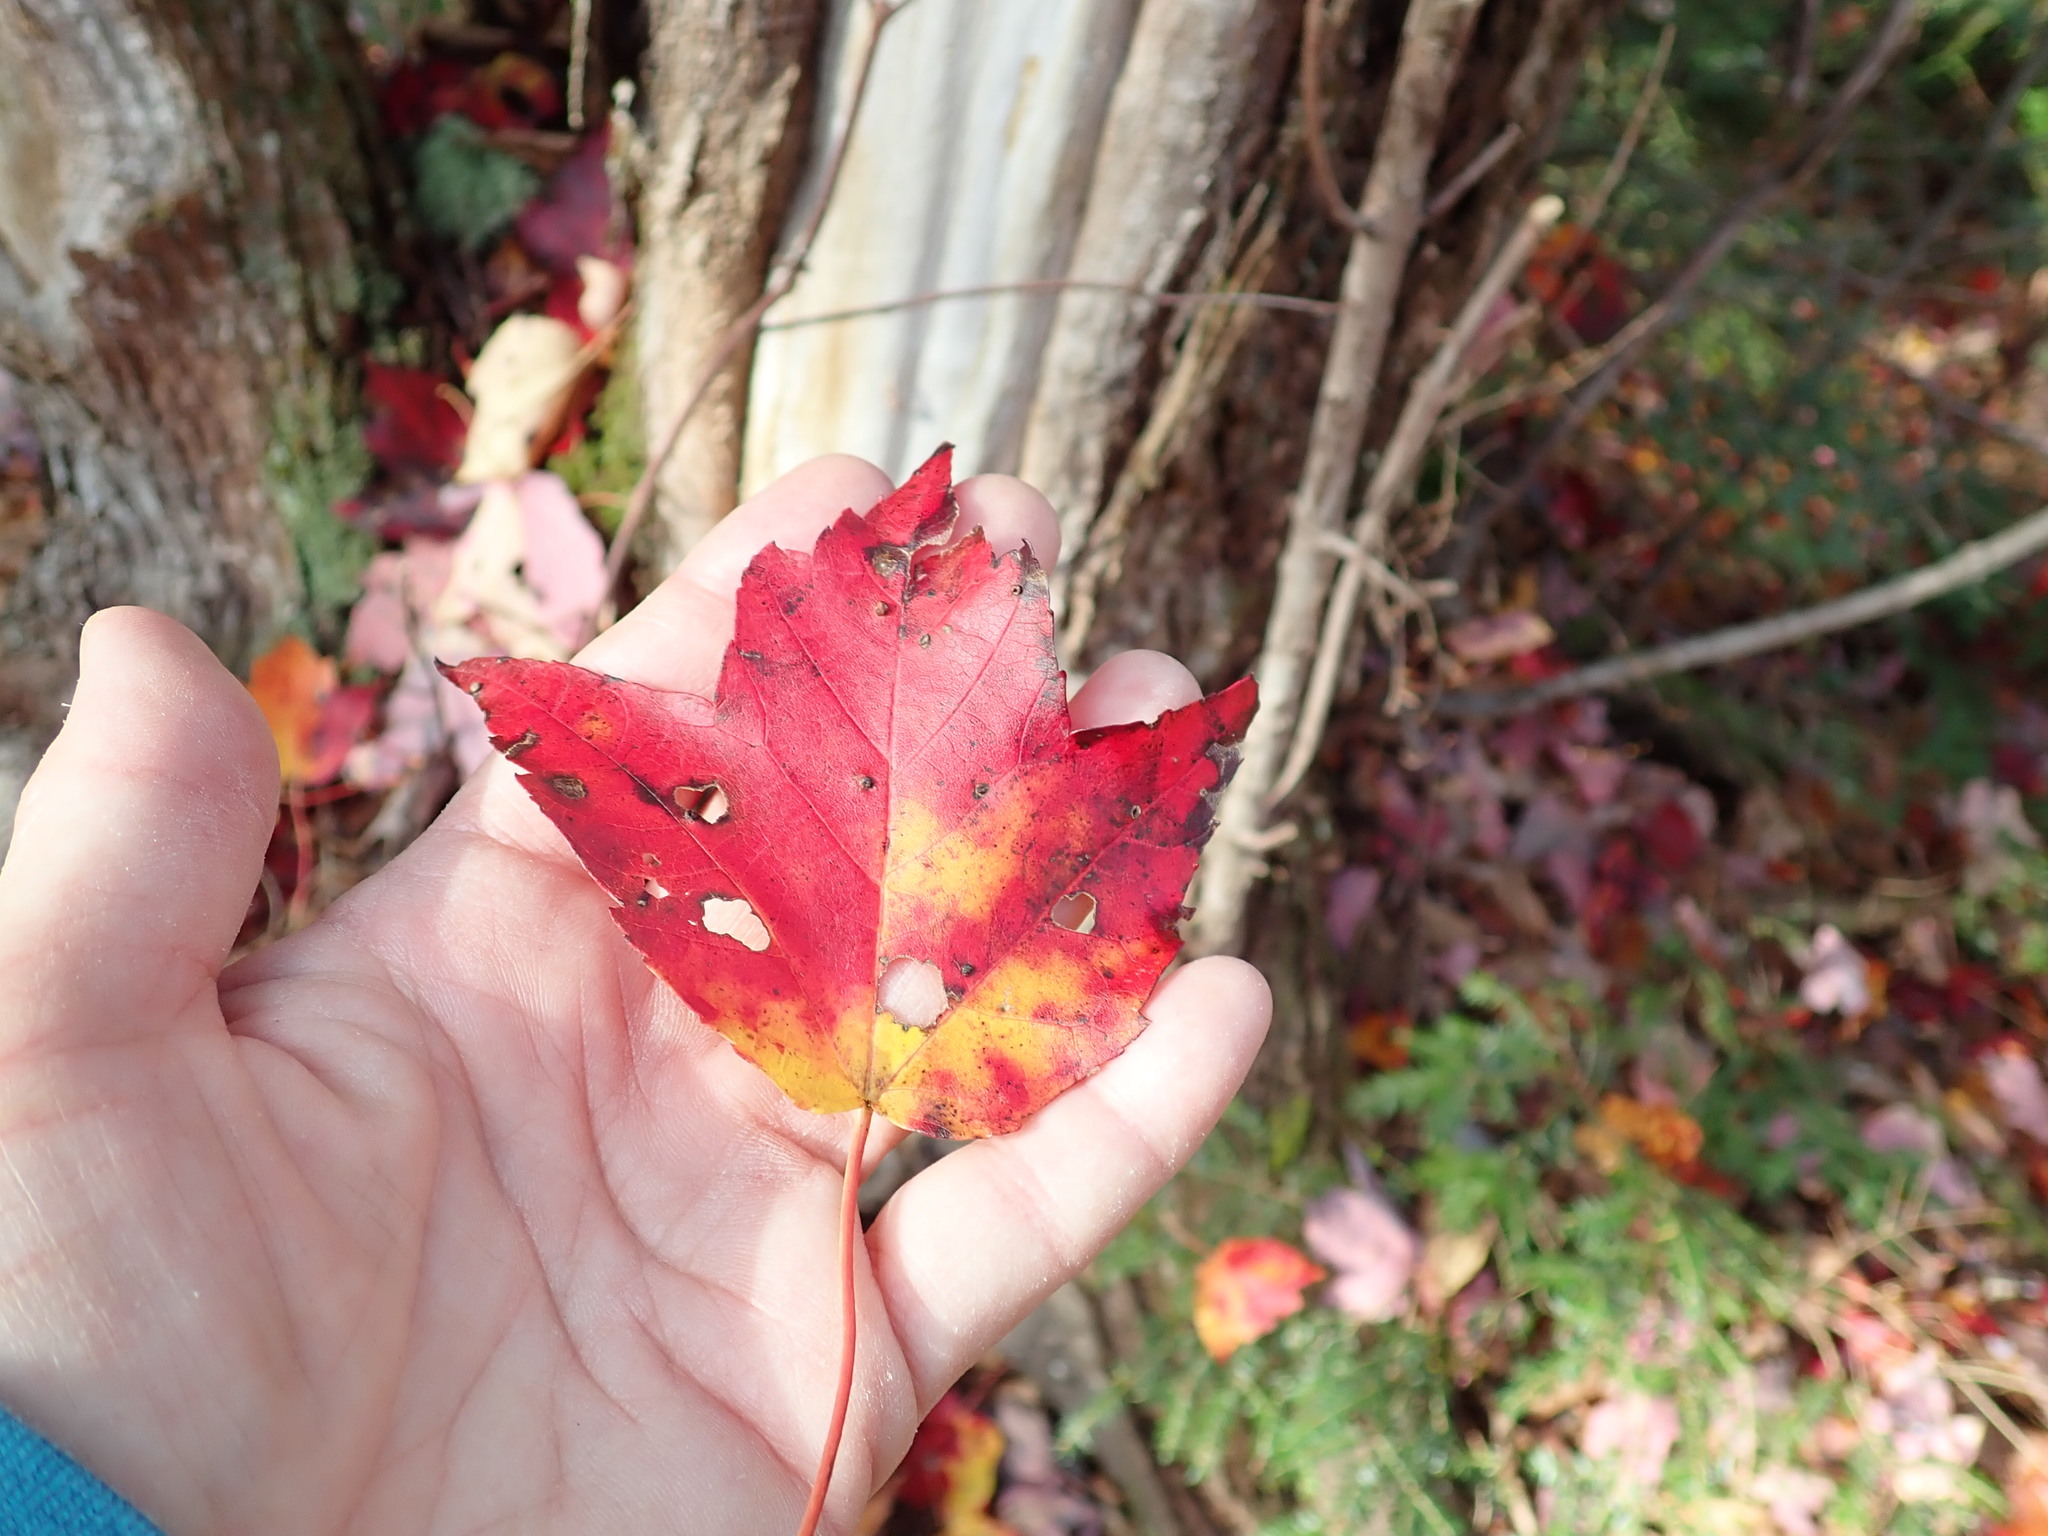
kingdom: Plantae
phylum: Tracheophyta
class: Magnoliopsida
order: Sapindales
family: Sapindaceae
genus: Acer
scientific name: Acer rubrum
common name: Red maple
